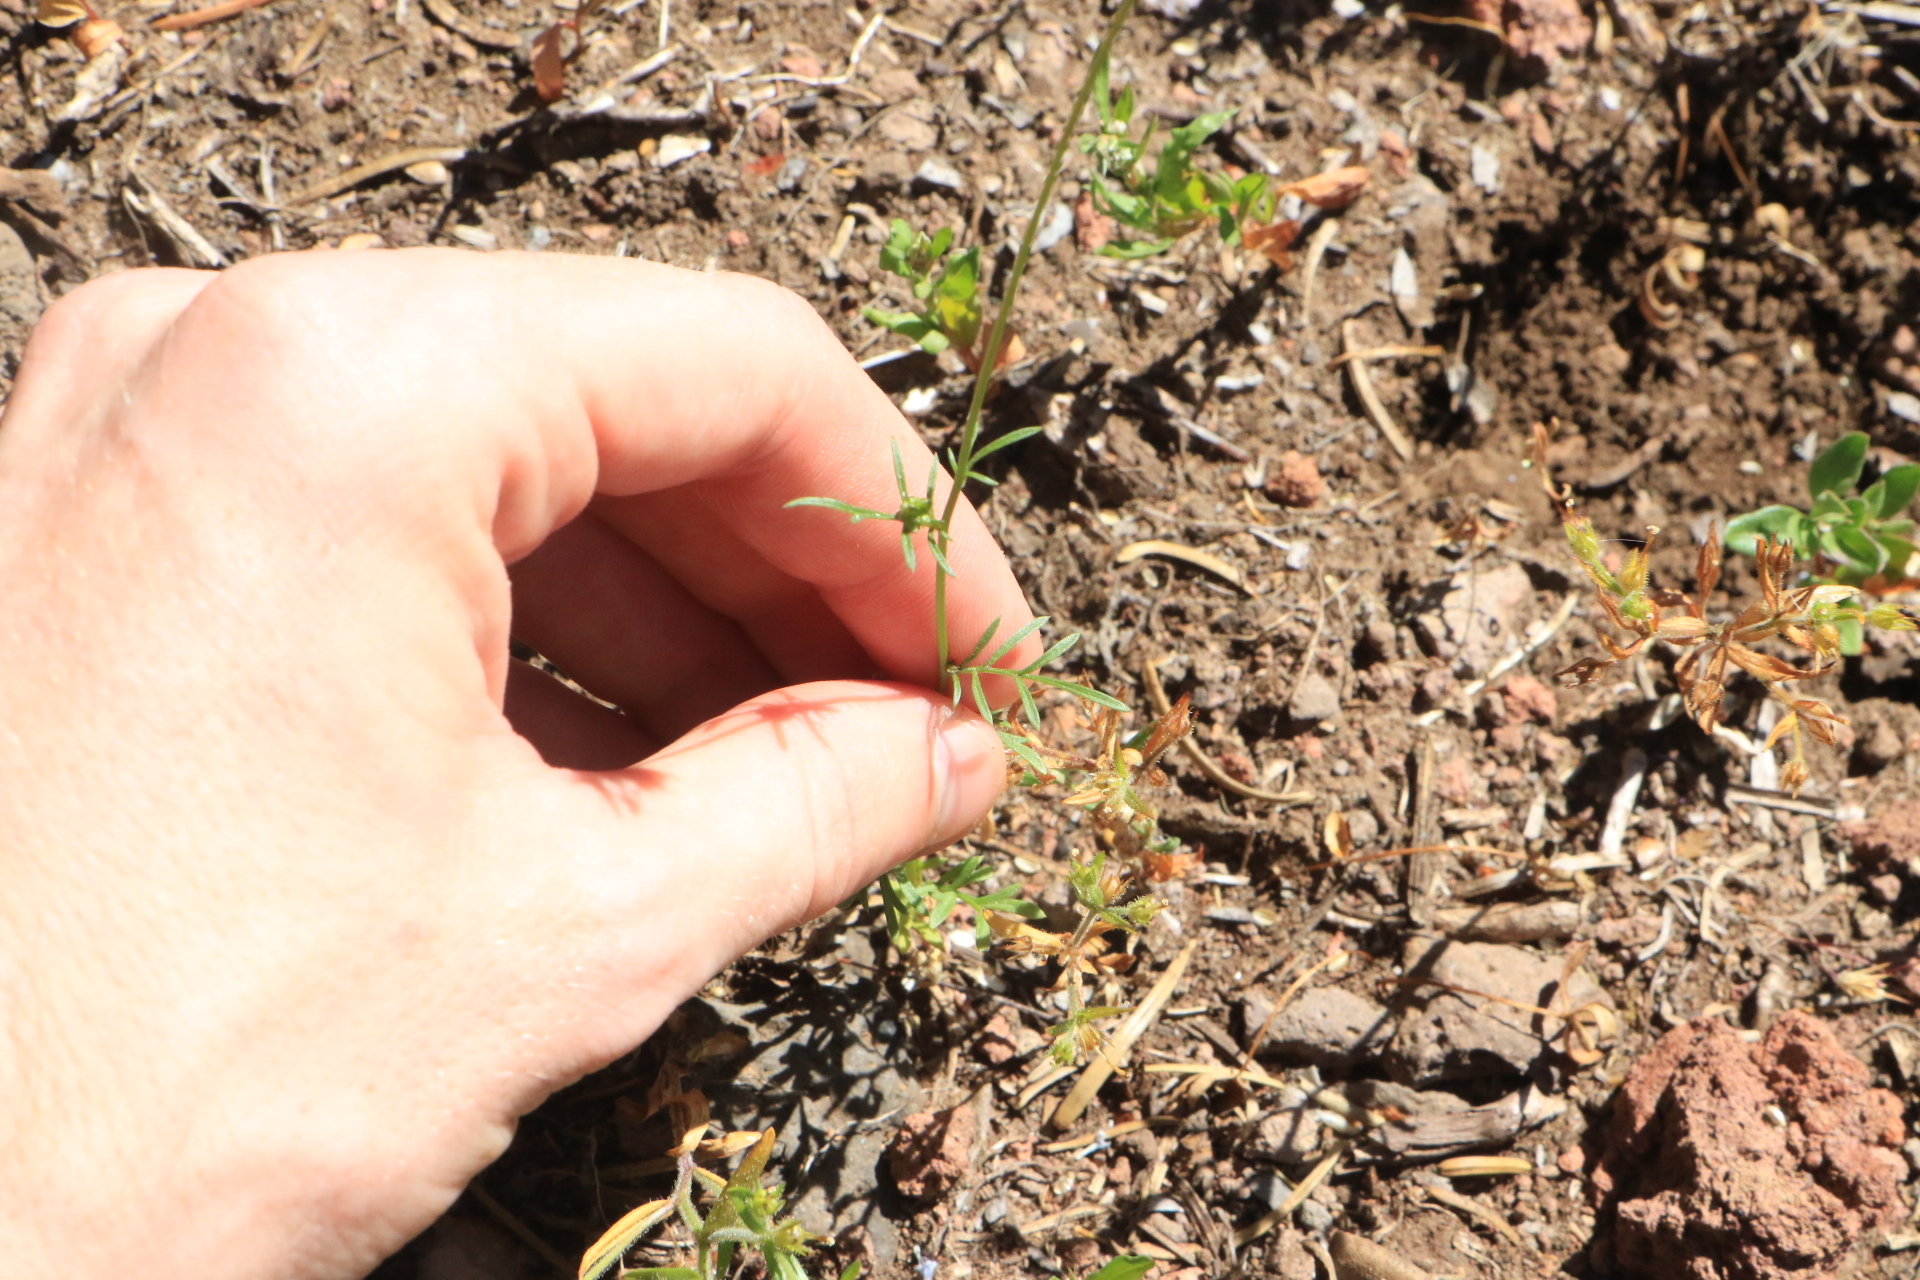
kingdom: Plantae
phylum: Tracheophyta
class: Magnoliopsida
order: Ericales
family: Polemoniaceae
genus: Gilia
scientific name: Gilia capitata
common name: Bluehead gilia
